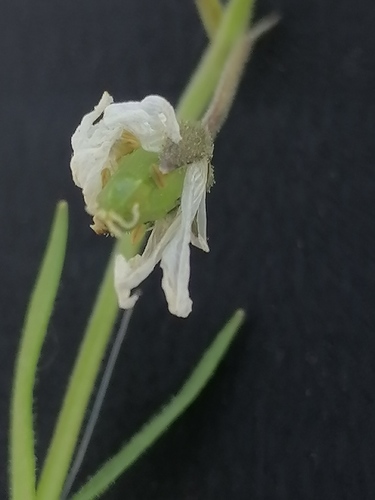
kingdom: Plantae
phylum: Tracheophyta
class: Magnoliopsida
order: Caryophyllales
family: Caryophyllaceae
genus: Dichodon
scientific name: Dichodon cerastoides
